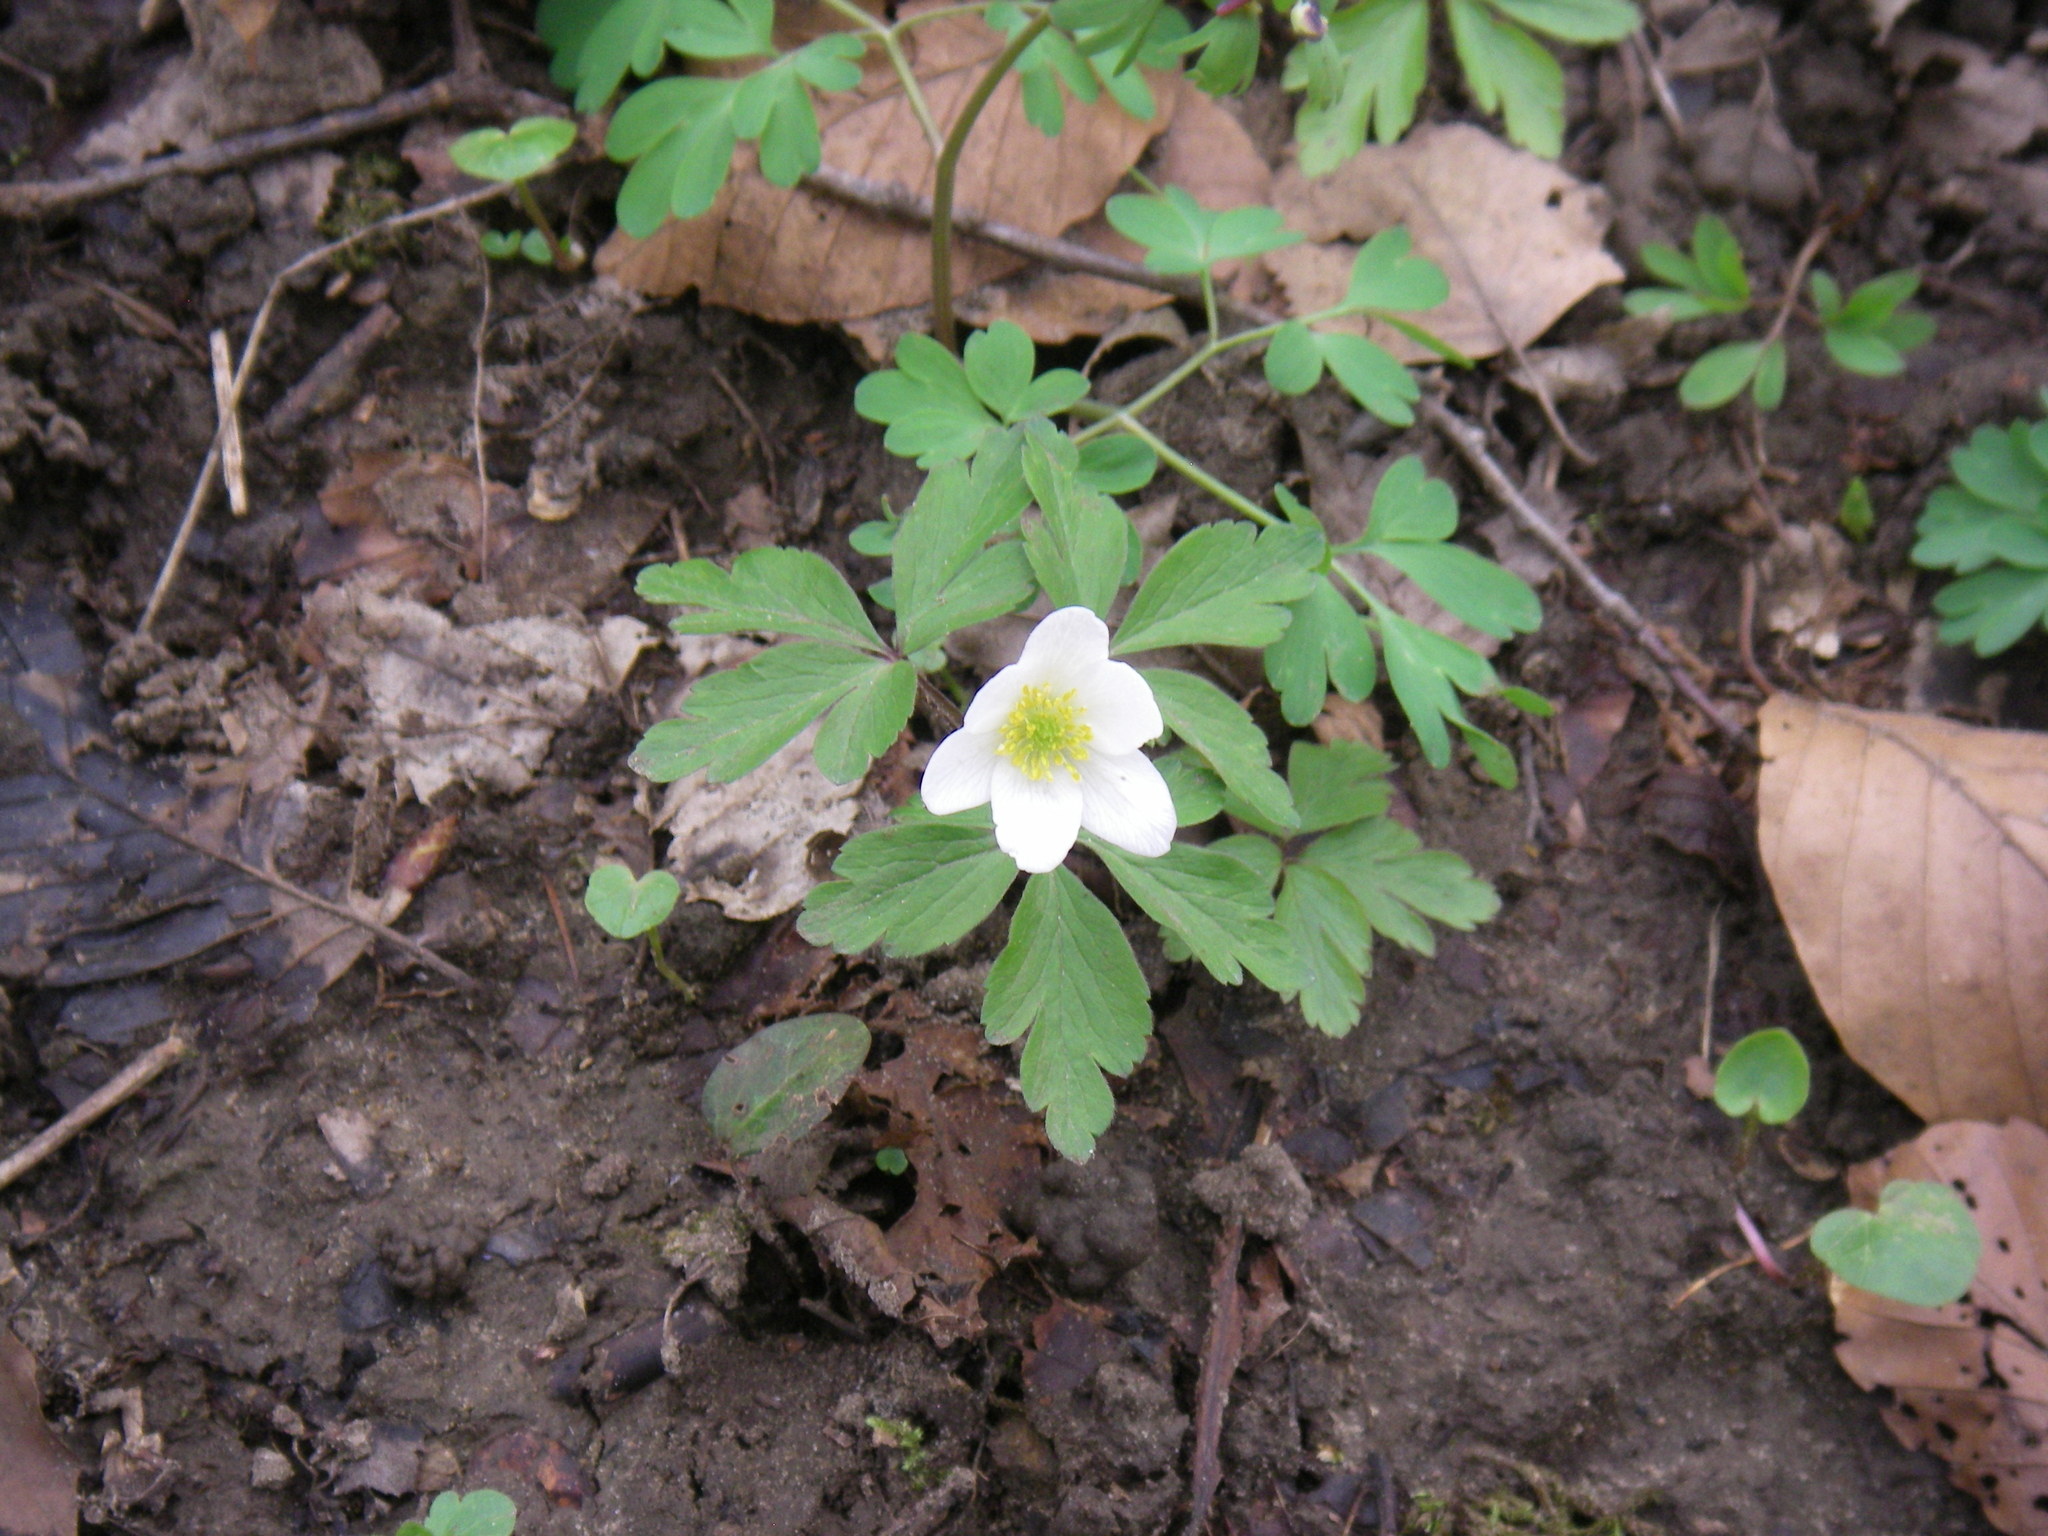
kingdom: Plantae
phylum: Tracheophyta
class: Magnoliopsida
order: Ranunculales
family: Ranunculaceae
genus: Anemone
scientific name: Anemone nemorosa
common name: Wood anemone
